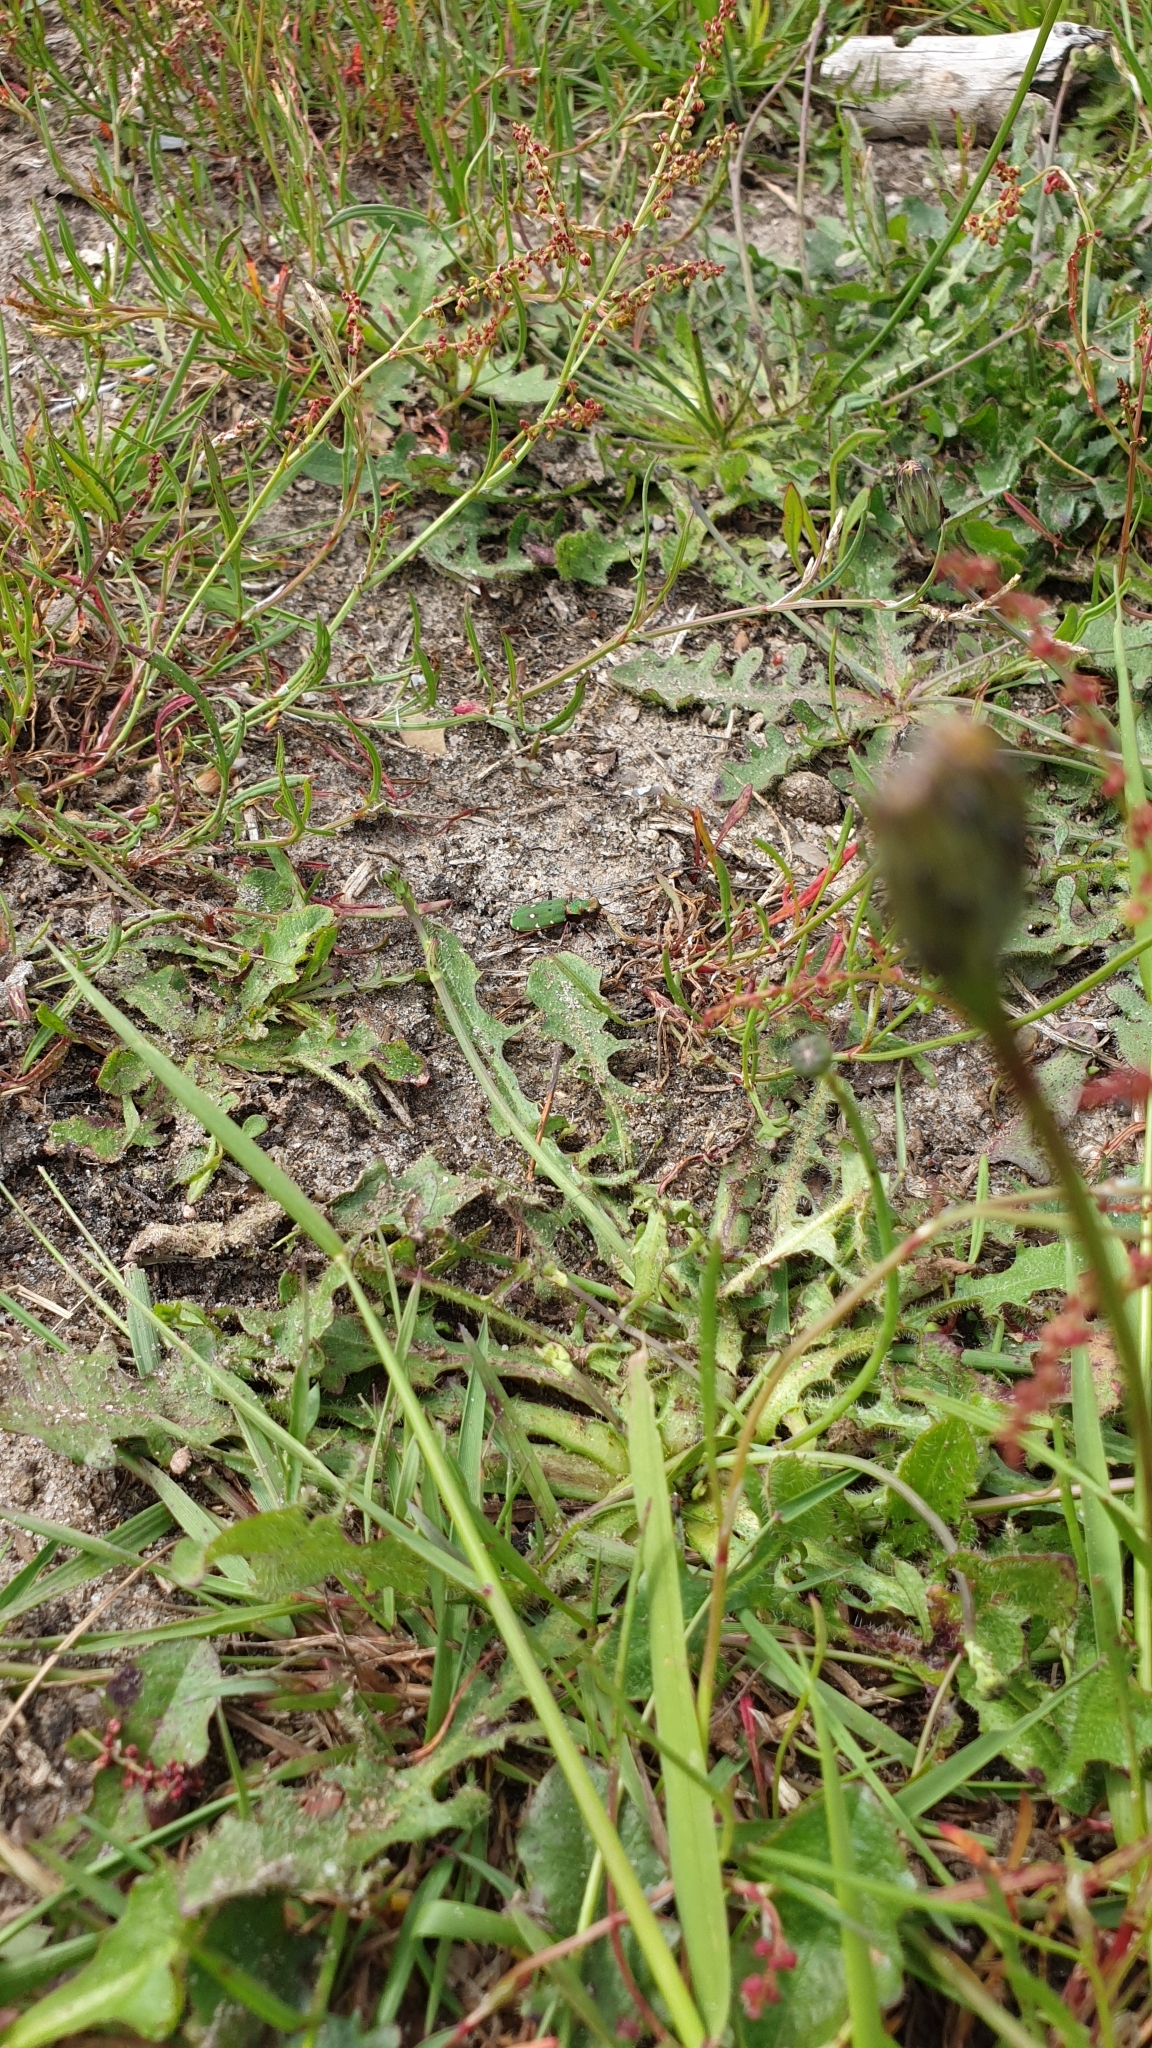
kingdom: Animalia
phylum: Arthropoda
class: Insecta
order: Coleoptera
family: Carabidae
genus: Cicindela
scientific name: Cicindela campestris
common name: Common tiger beetle
